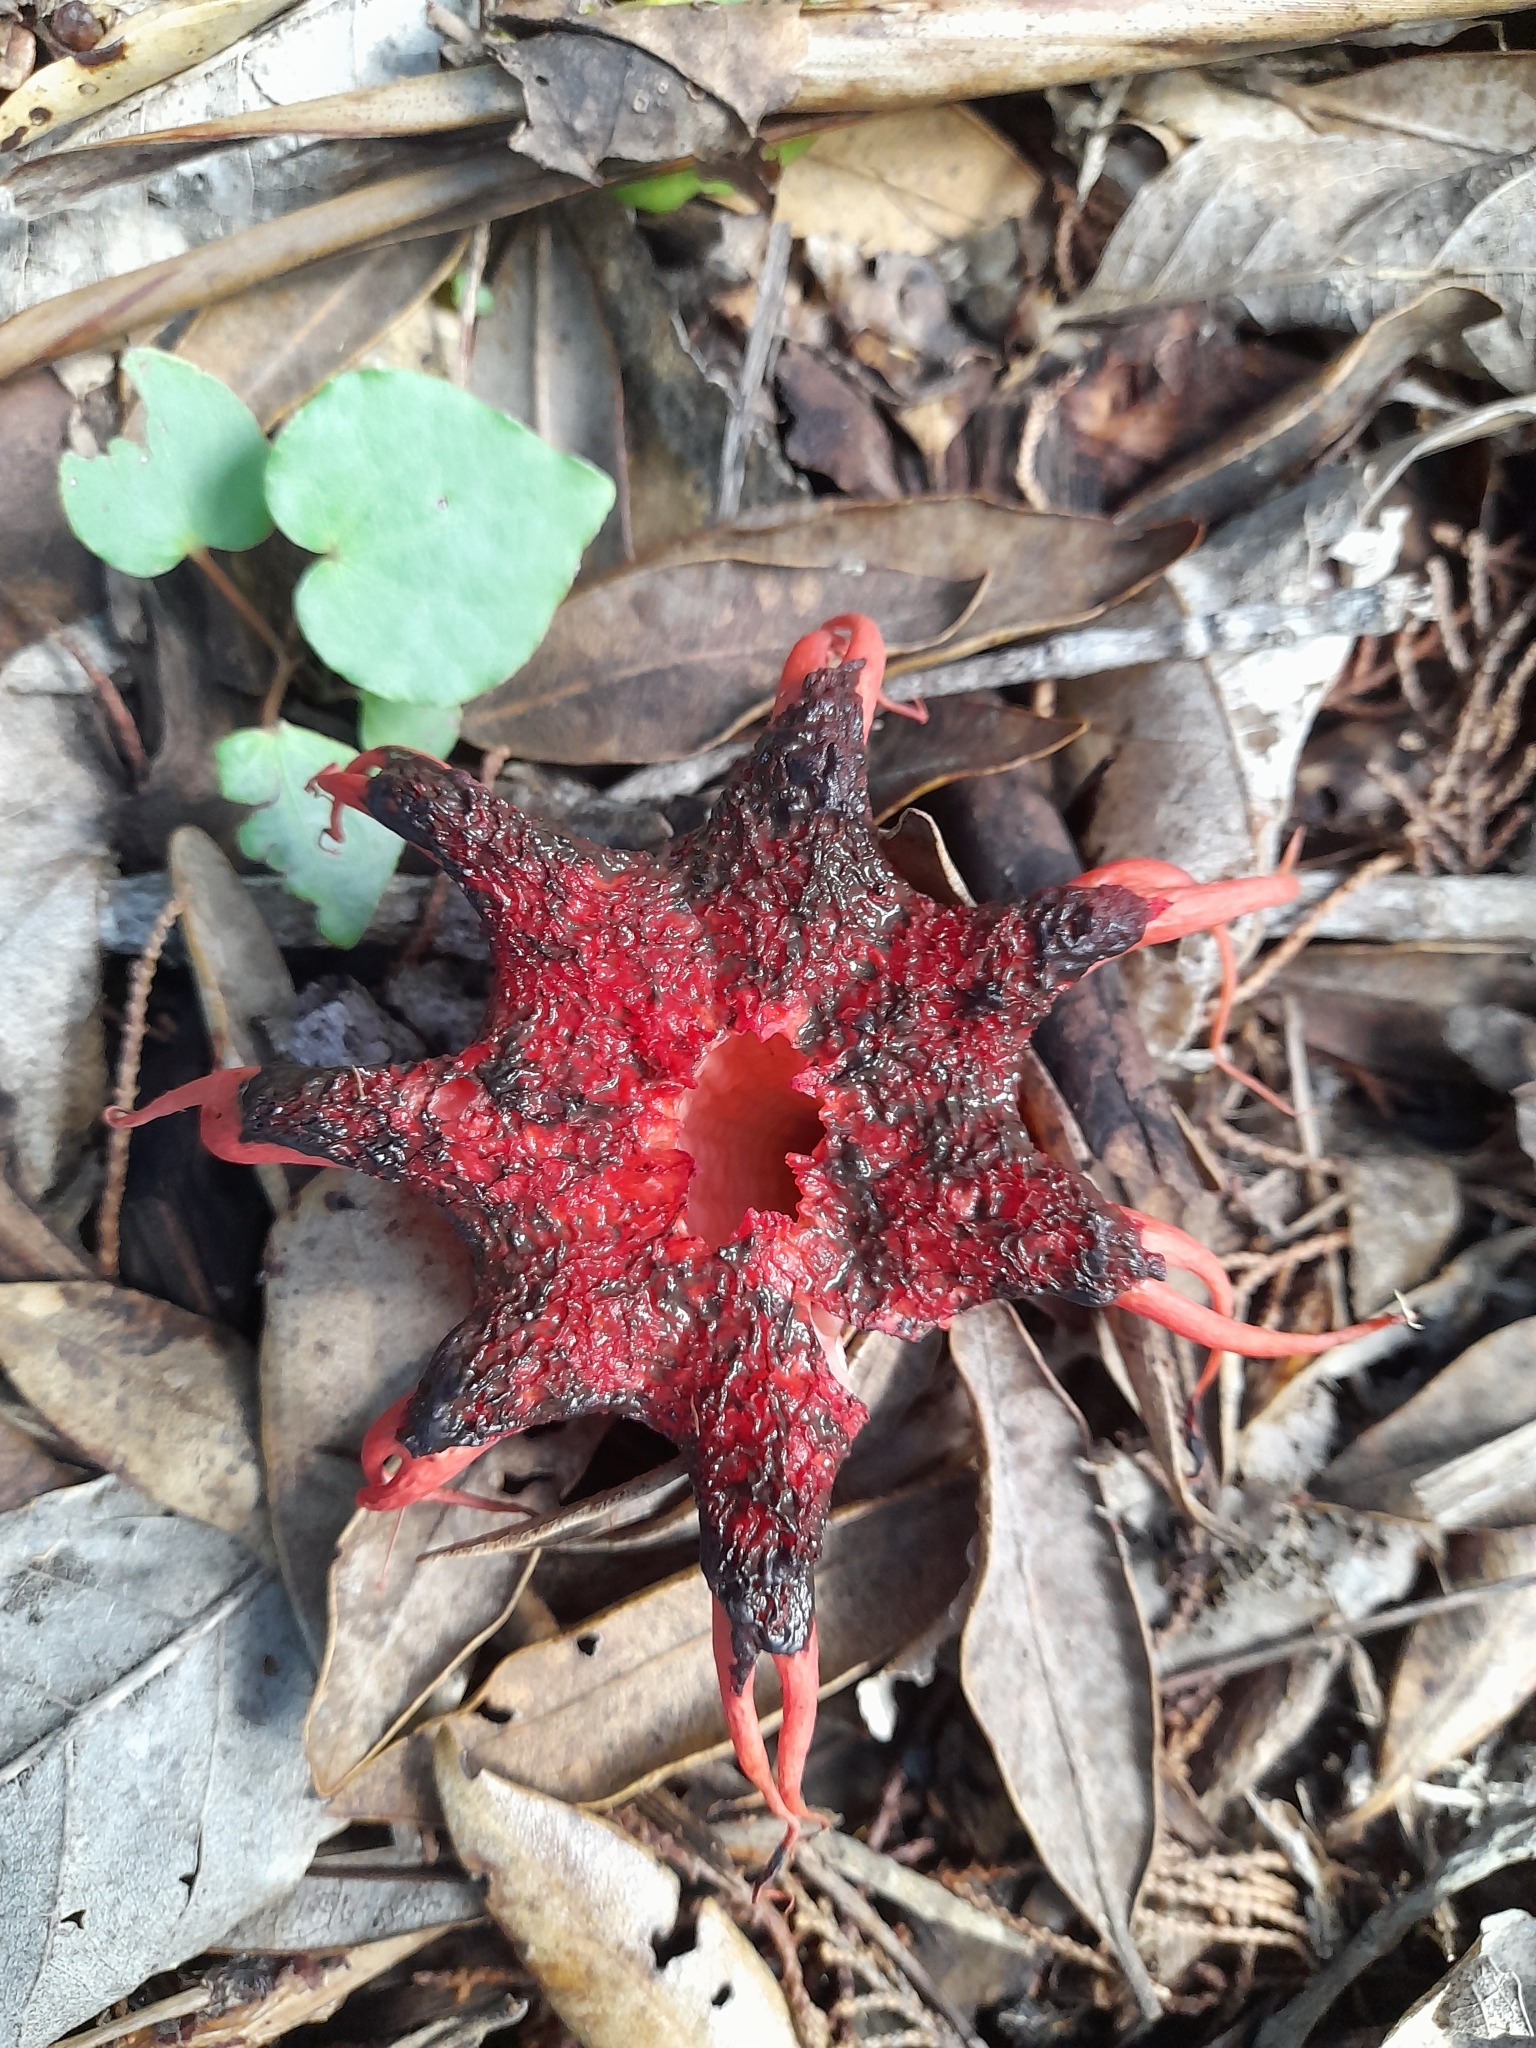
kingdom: Fungi
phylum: Basidiomycota
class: Agaricomycetes
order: Phallales
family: Phallaceae
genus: Aseroe
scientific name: Aseroe rubra
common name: Starfish fungus
